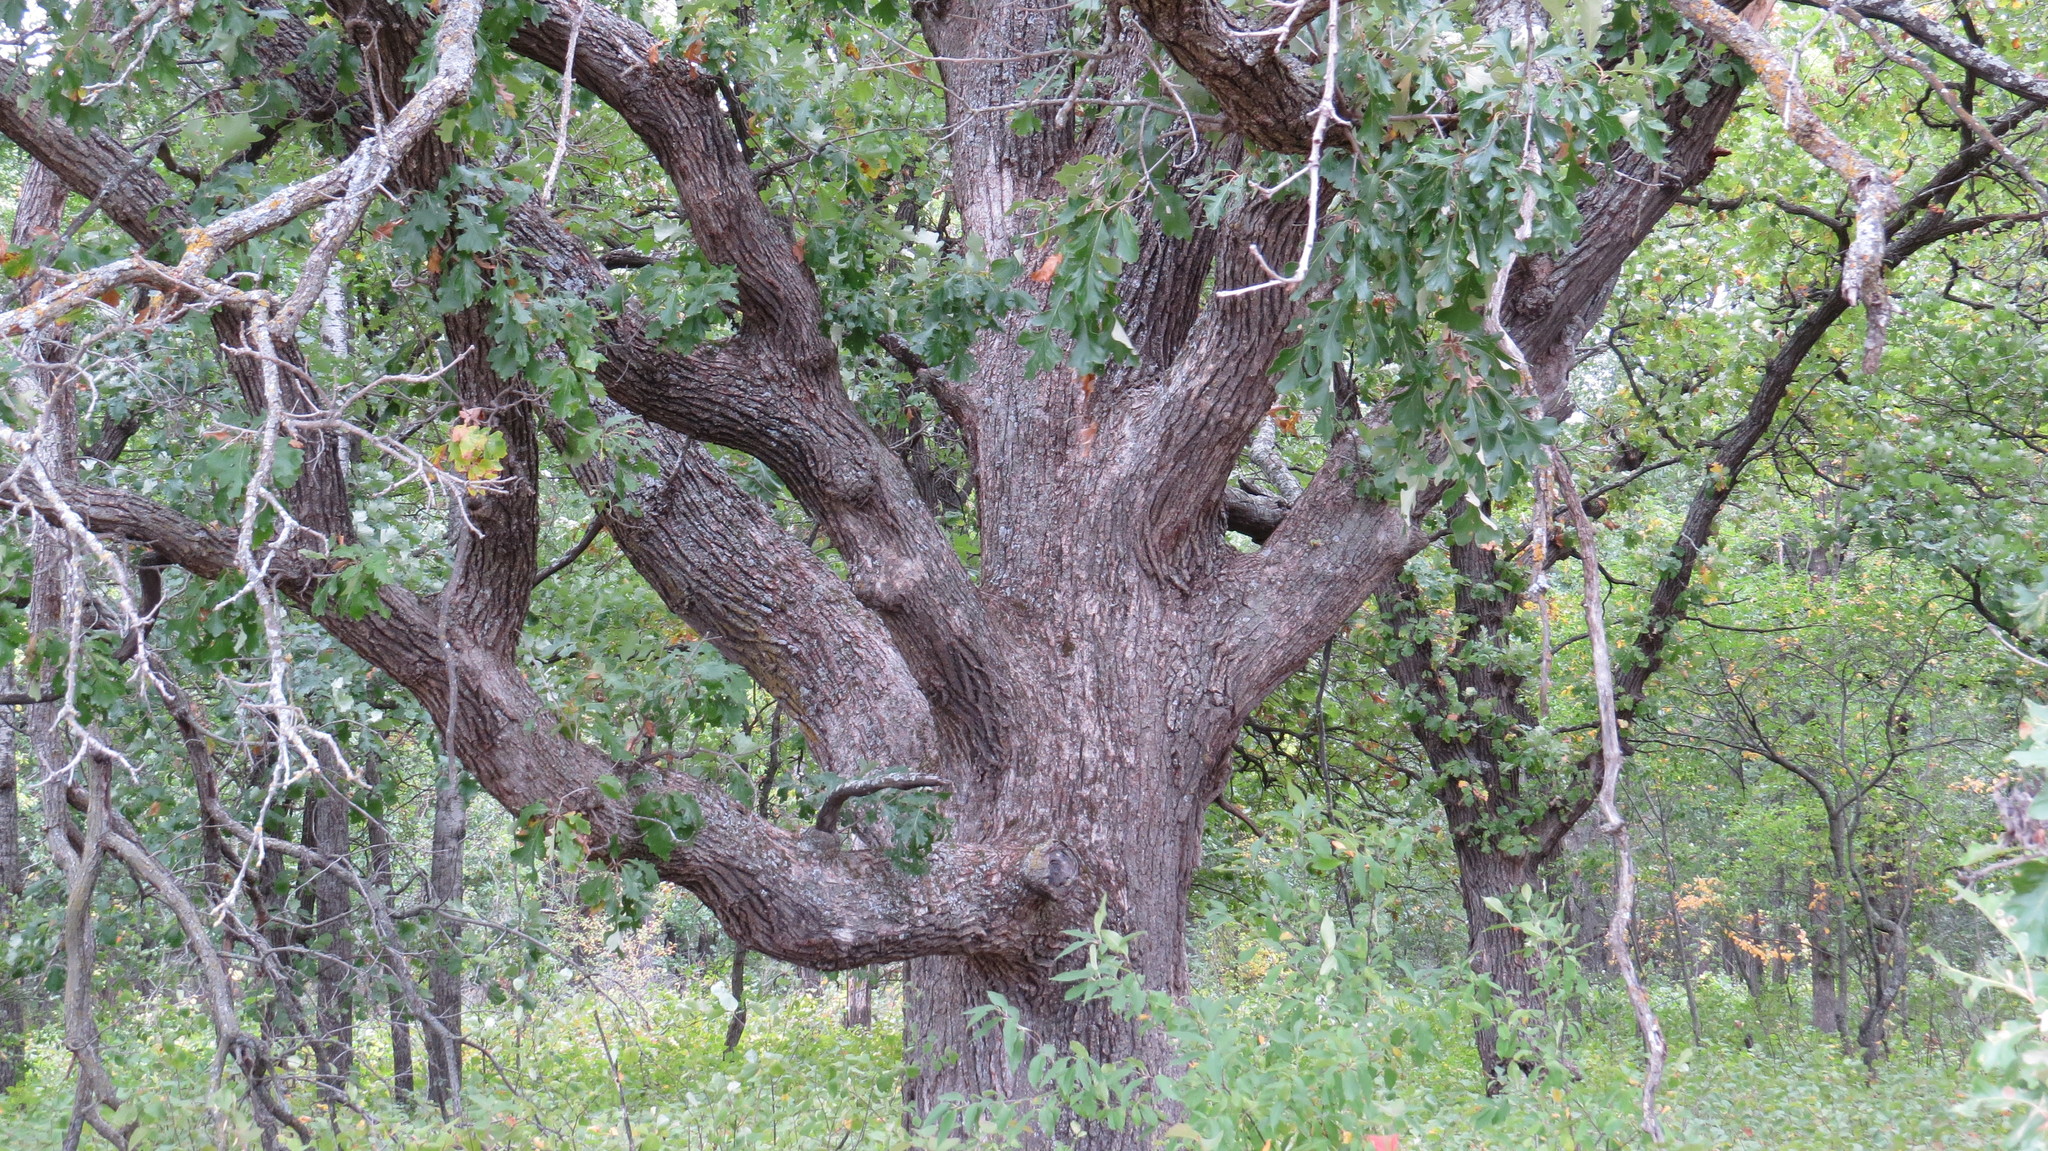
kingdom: Plantae
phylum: Tracheophyta
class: Magnoliopsida
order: Fagales
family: Fagaceae
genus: Quercus
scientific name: Quercus macrocarpa
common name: Bur oak
